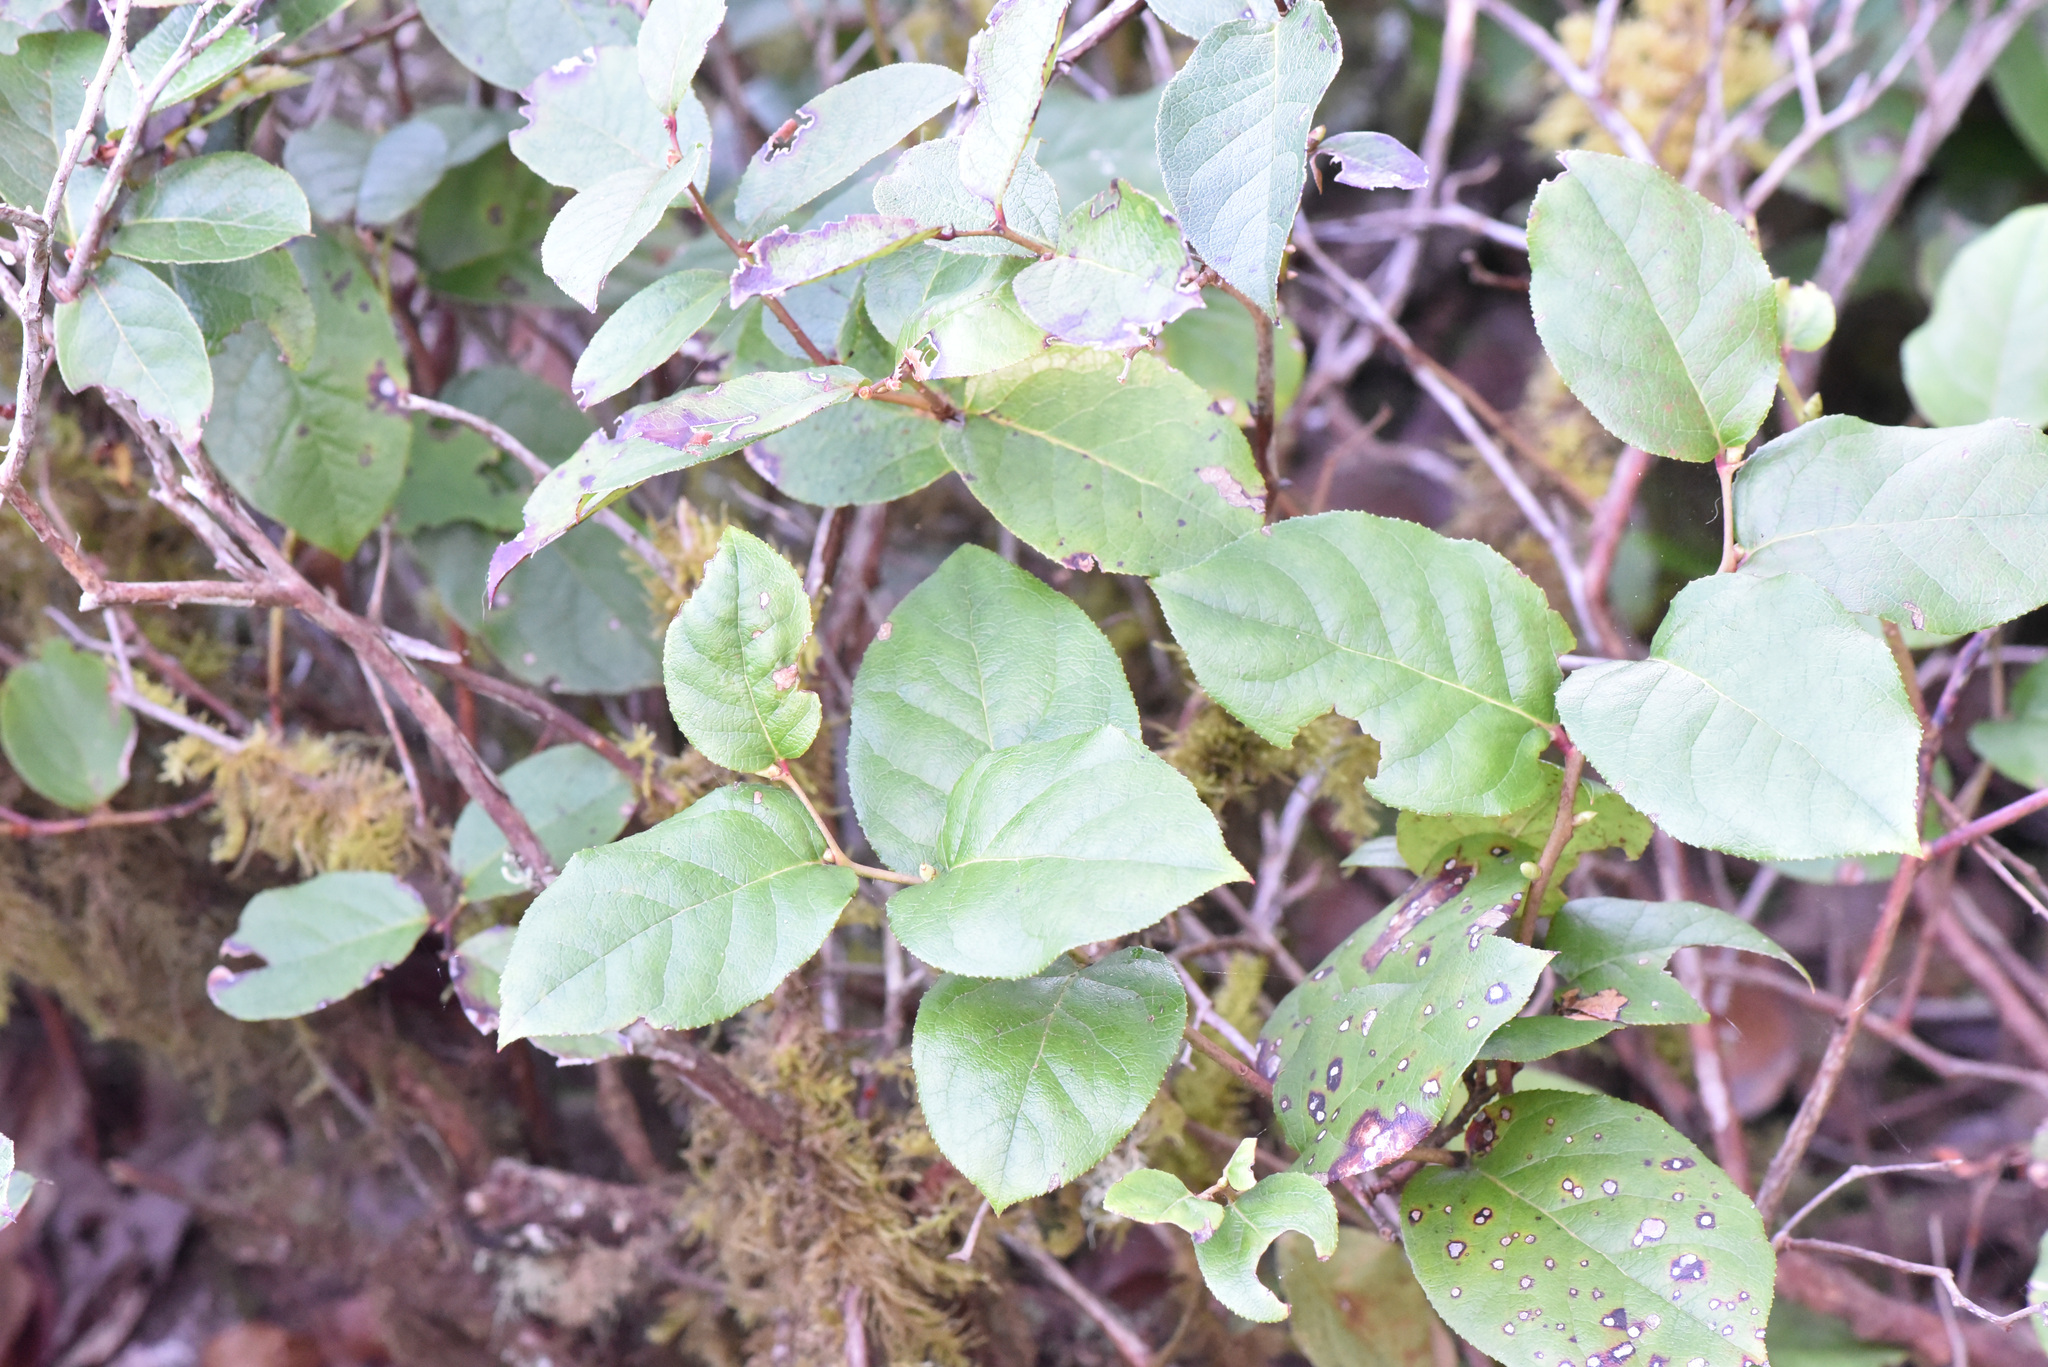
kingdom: Plantae
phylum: Tracheophyta
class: Magnoliopsida
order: Ericales
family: Ericaceae
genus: Gaultheria
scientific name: Gaultheria shallon
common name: Shallon
